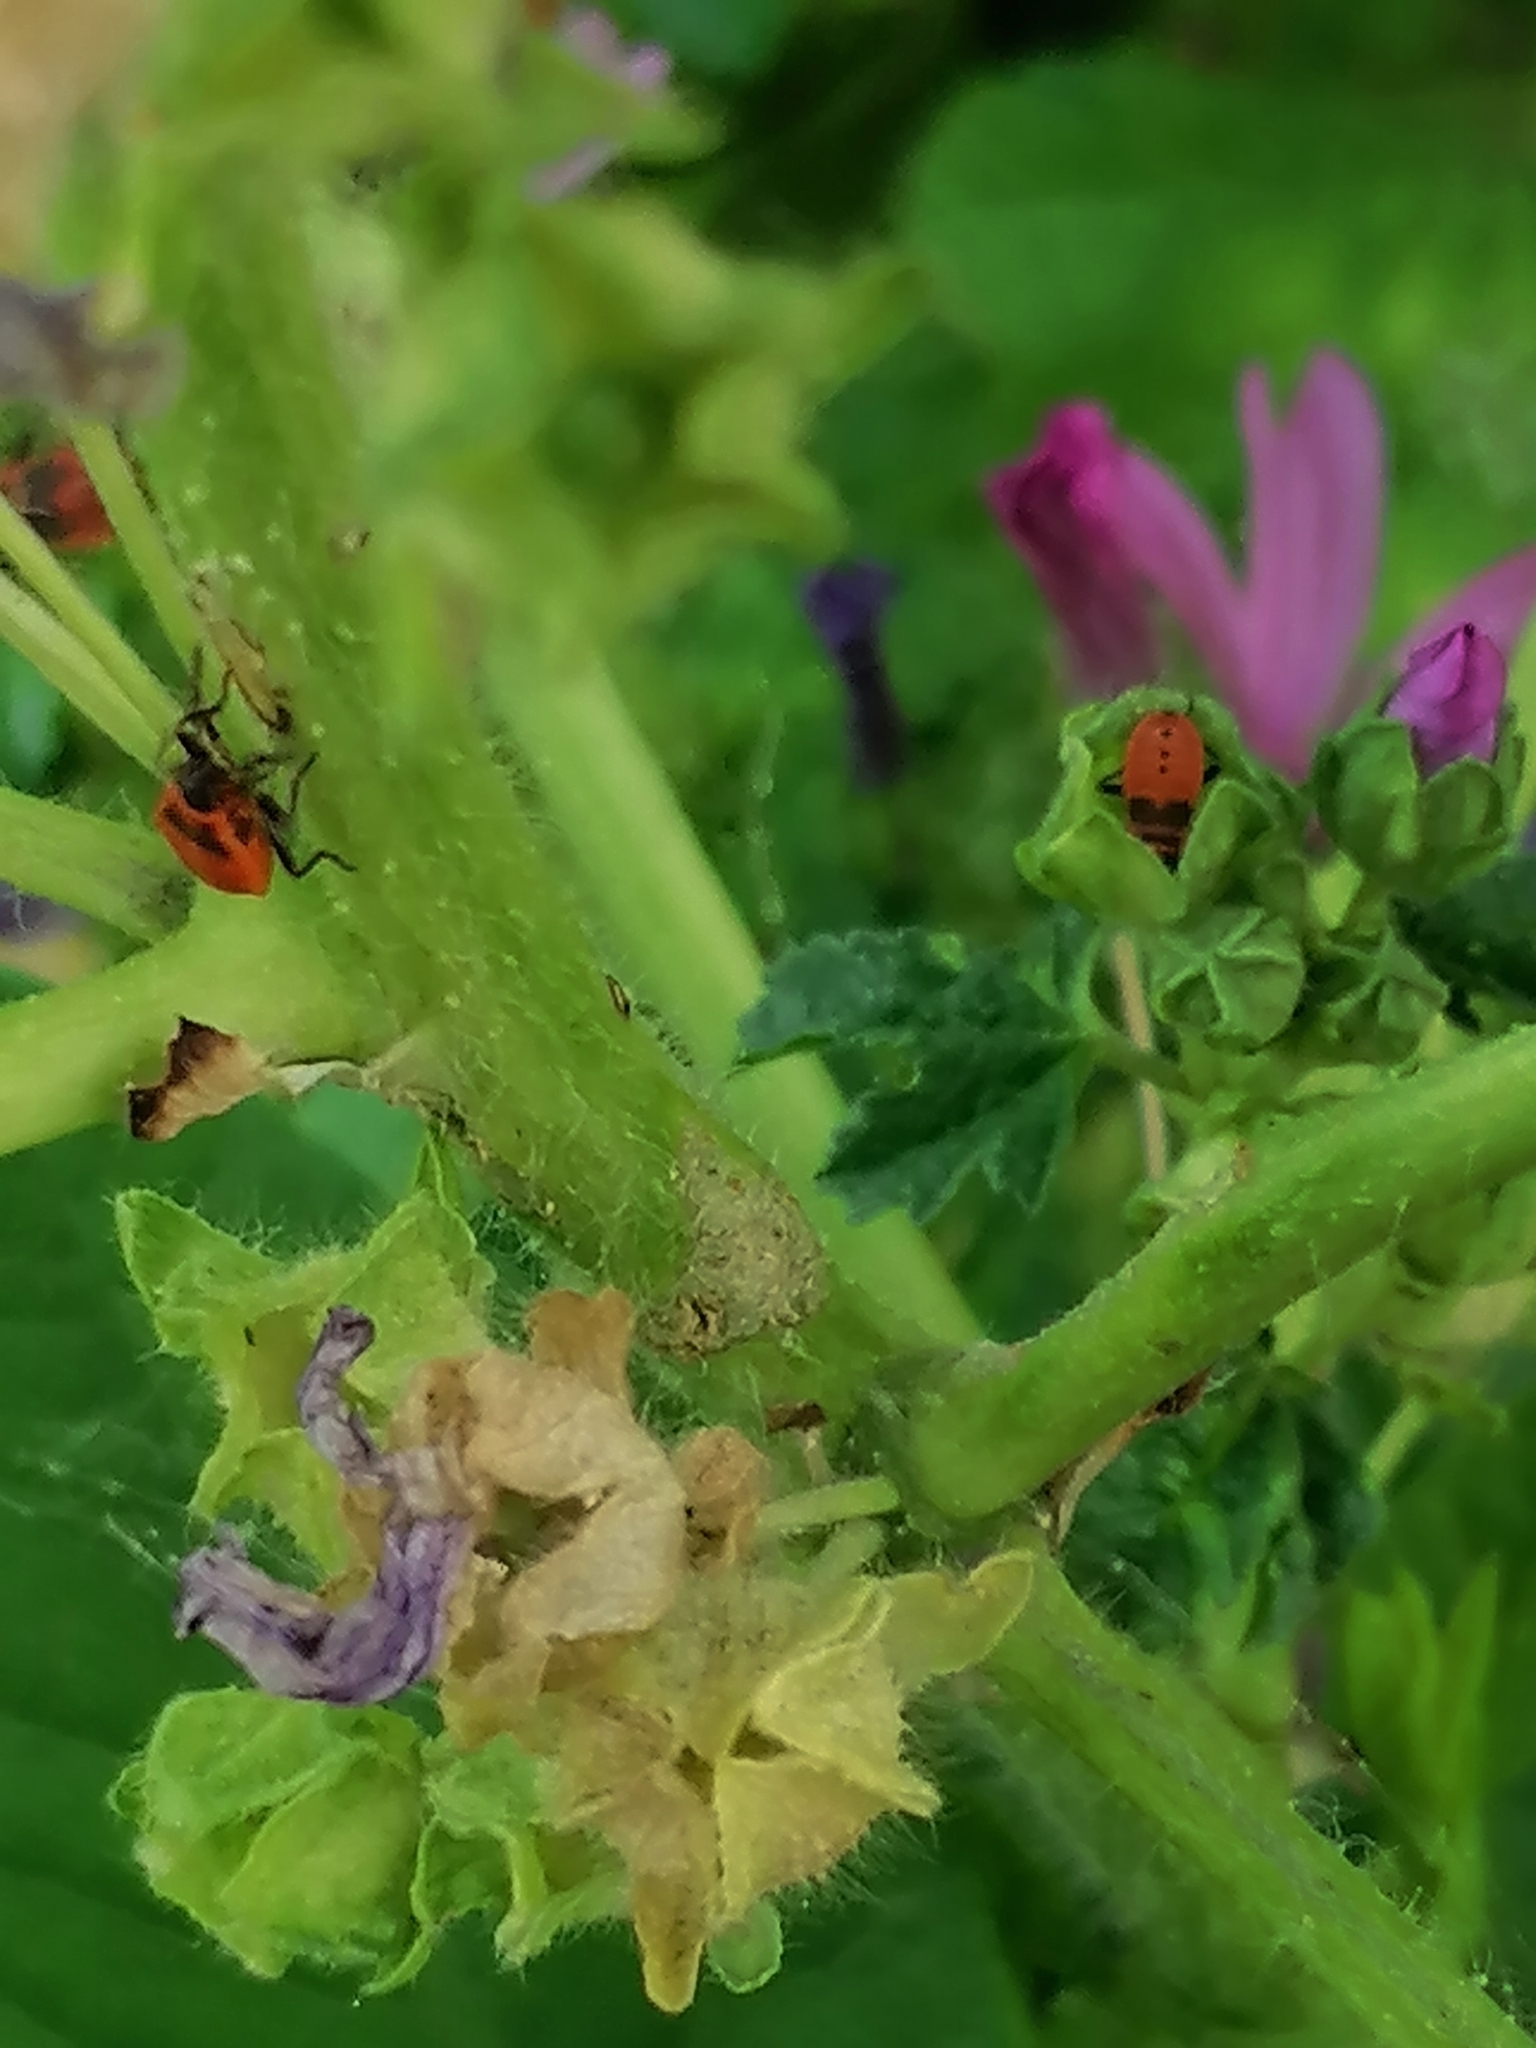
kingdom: Animalia
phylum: Arthropoda
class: Insecta
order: Hemiptera
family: Pyrrhocoridae
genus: Pyrrhocoris
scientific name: Pyrrhocoris apterus
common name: Firebug
